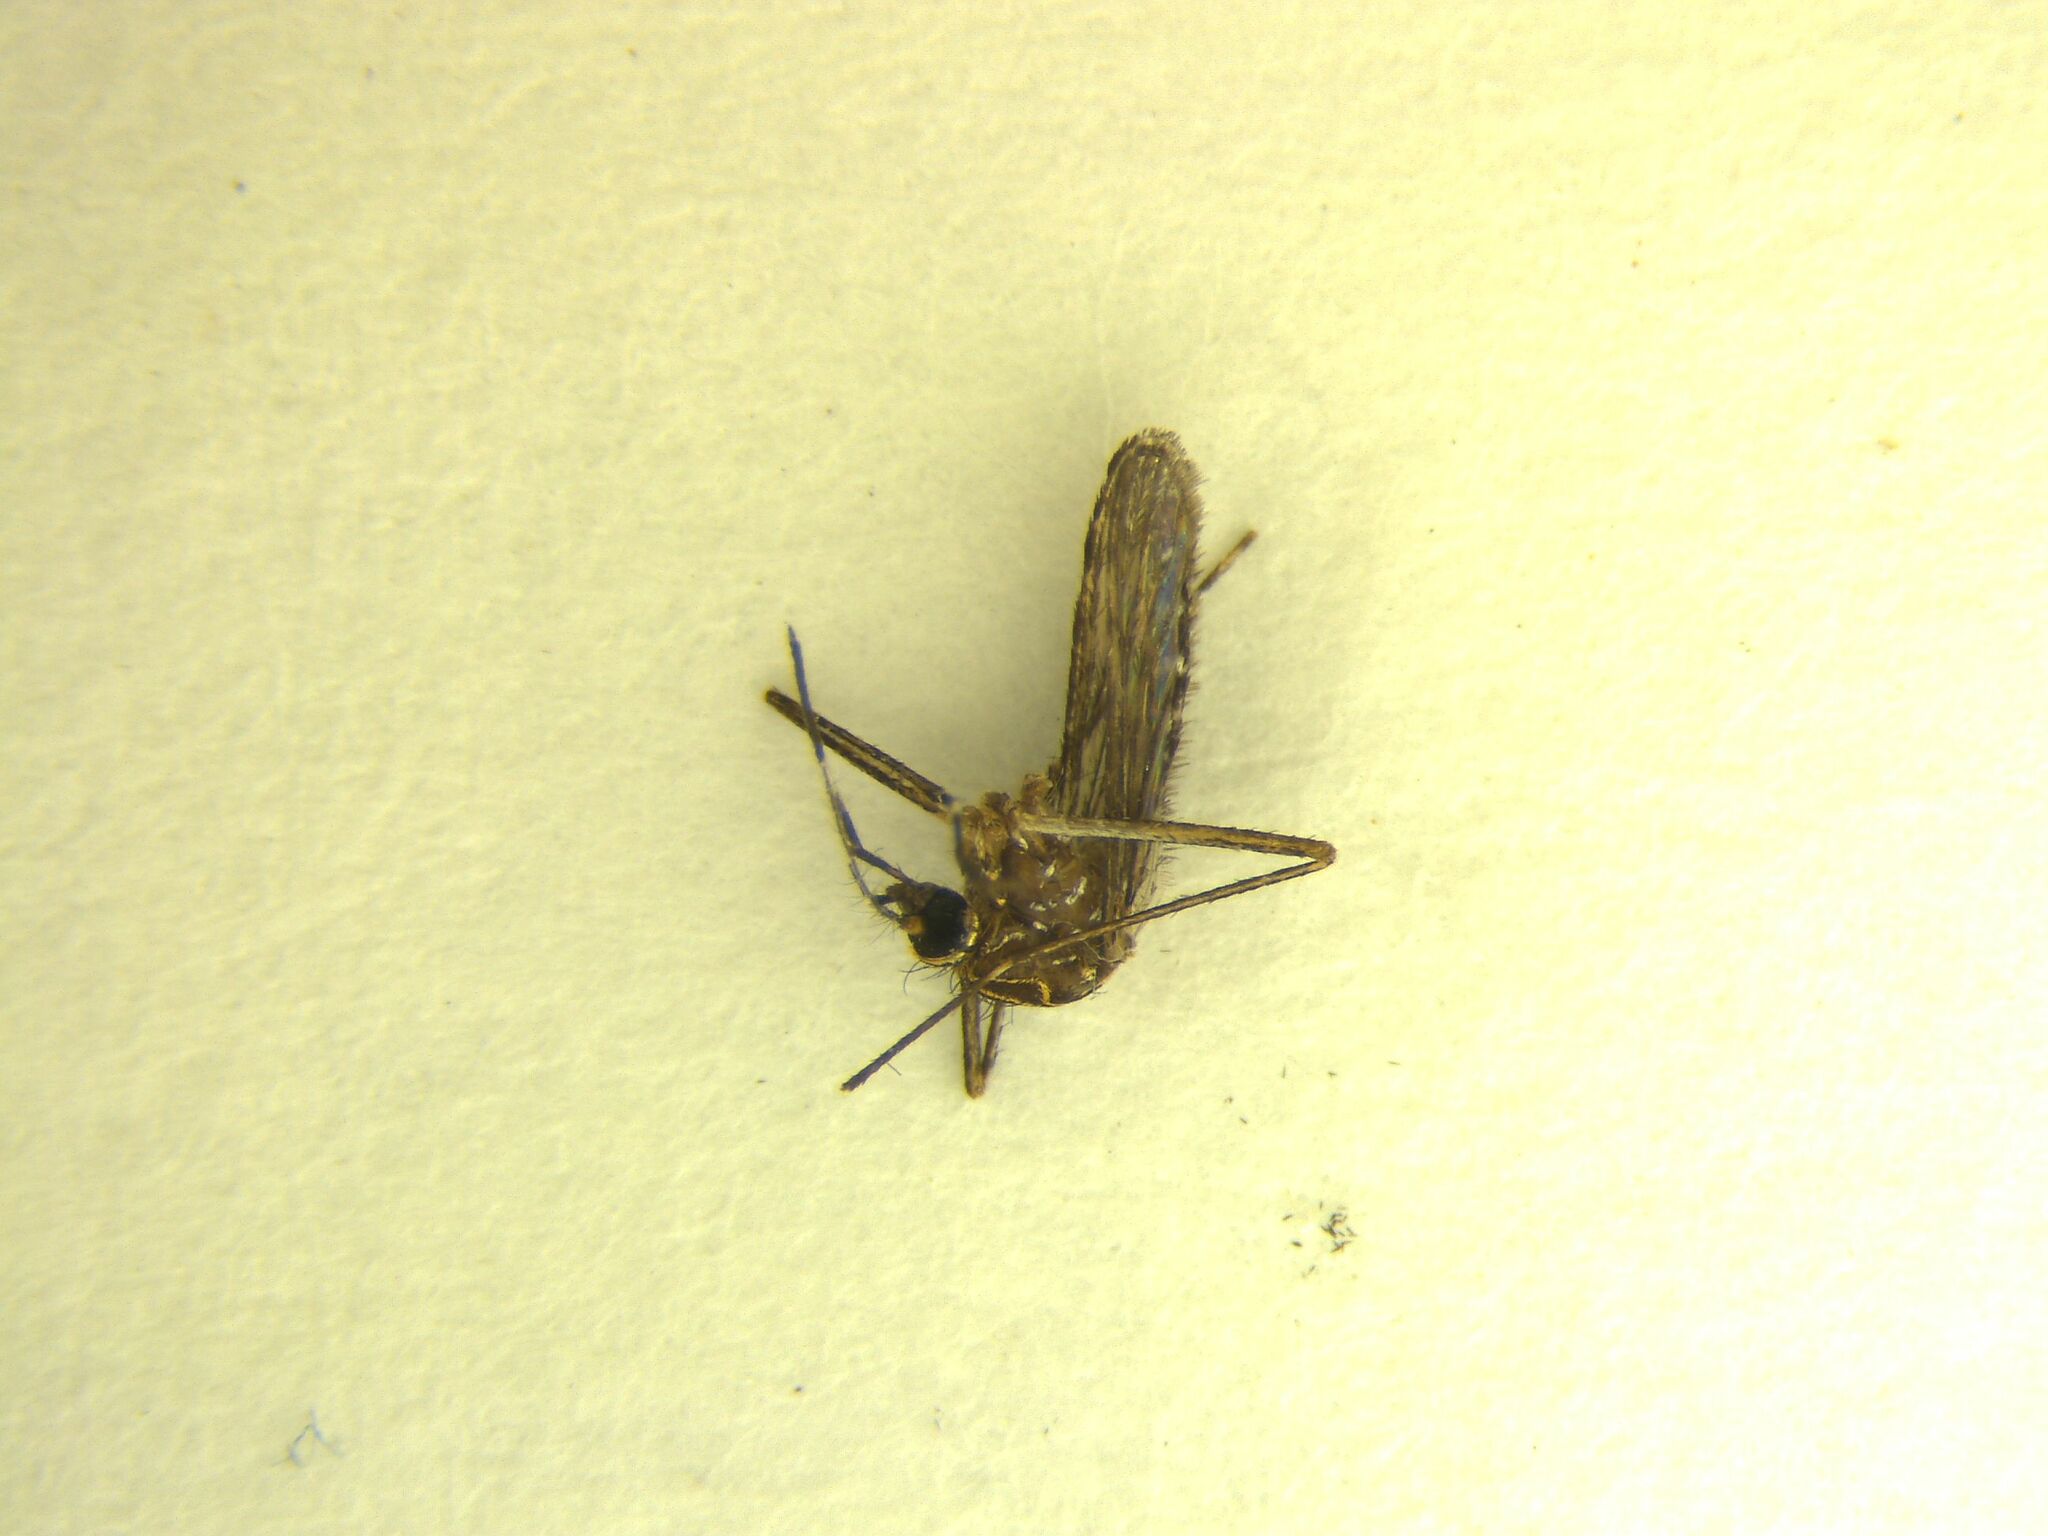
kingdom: Animalia
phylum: Arthropoda
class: Insecta
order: Diptera
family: Culicidae
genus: Aedes
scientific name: Aedes notoscriptus
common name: Australian backyard mosquito
